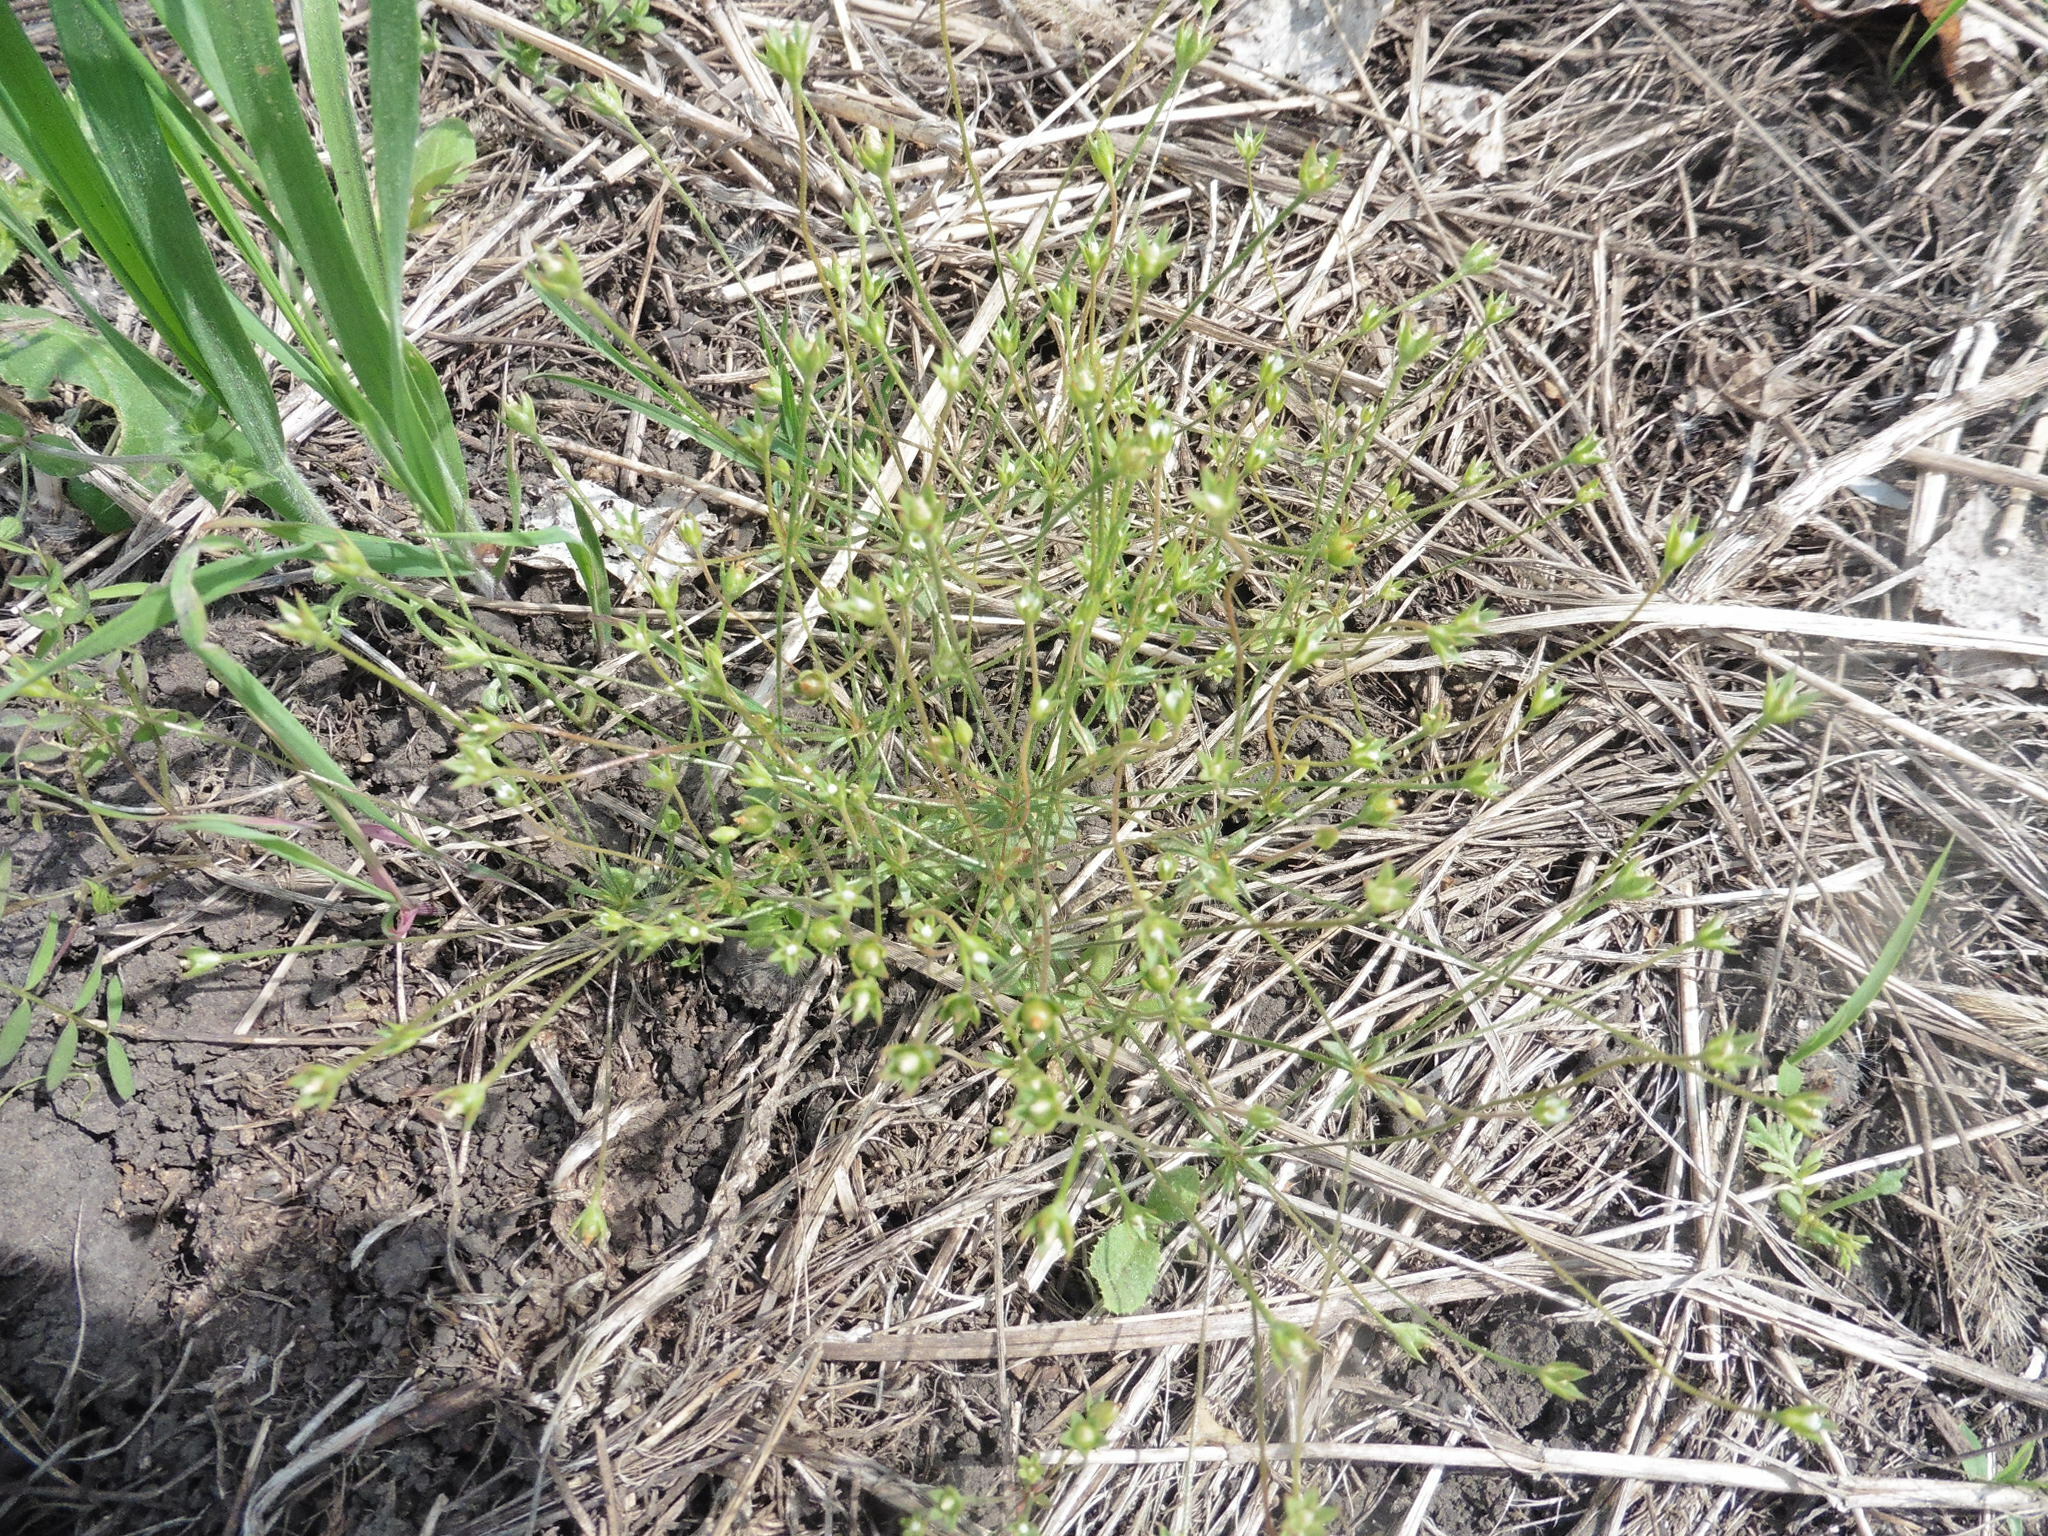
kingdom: Plantae
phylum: Tracheophyta
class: Magnoliopsida
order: Ericales
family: Primulaceae
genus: Androsace
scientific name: Androsace elongata
